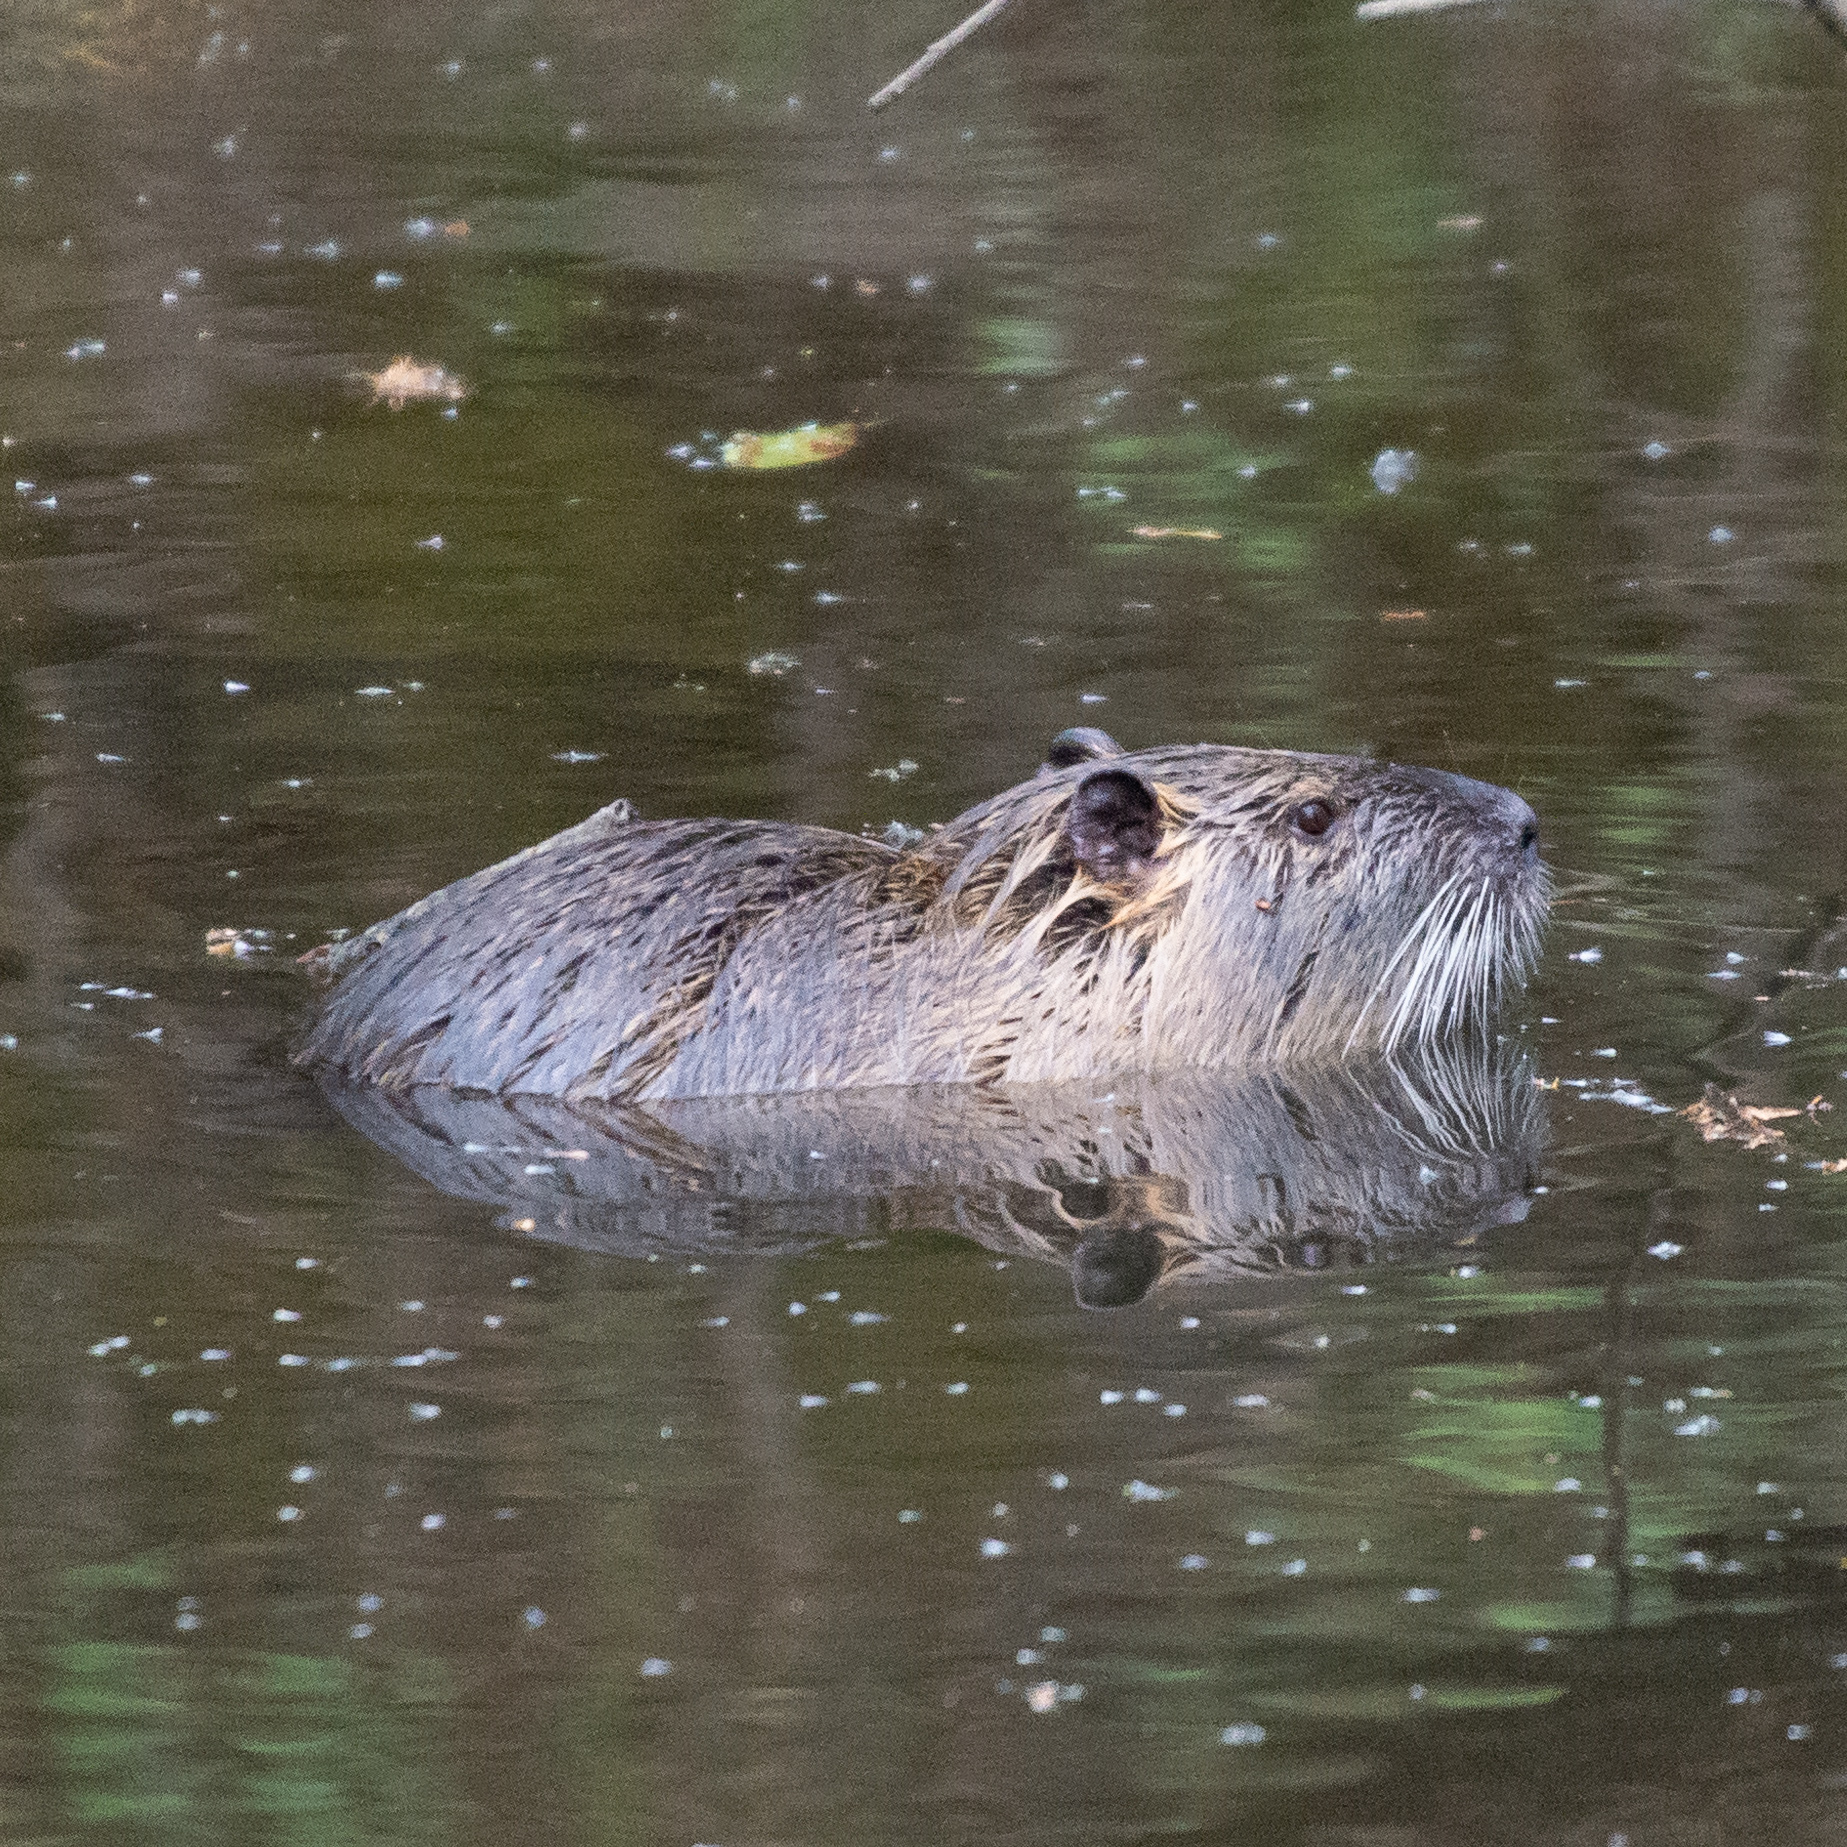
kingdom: Animalia
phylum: Chordata
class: Mammalia
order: Rodentia
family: Myocastoridae
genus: Myocastor
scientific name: Myocastor coypus
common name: Coypu
